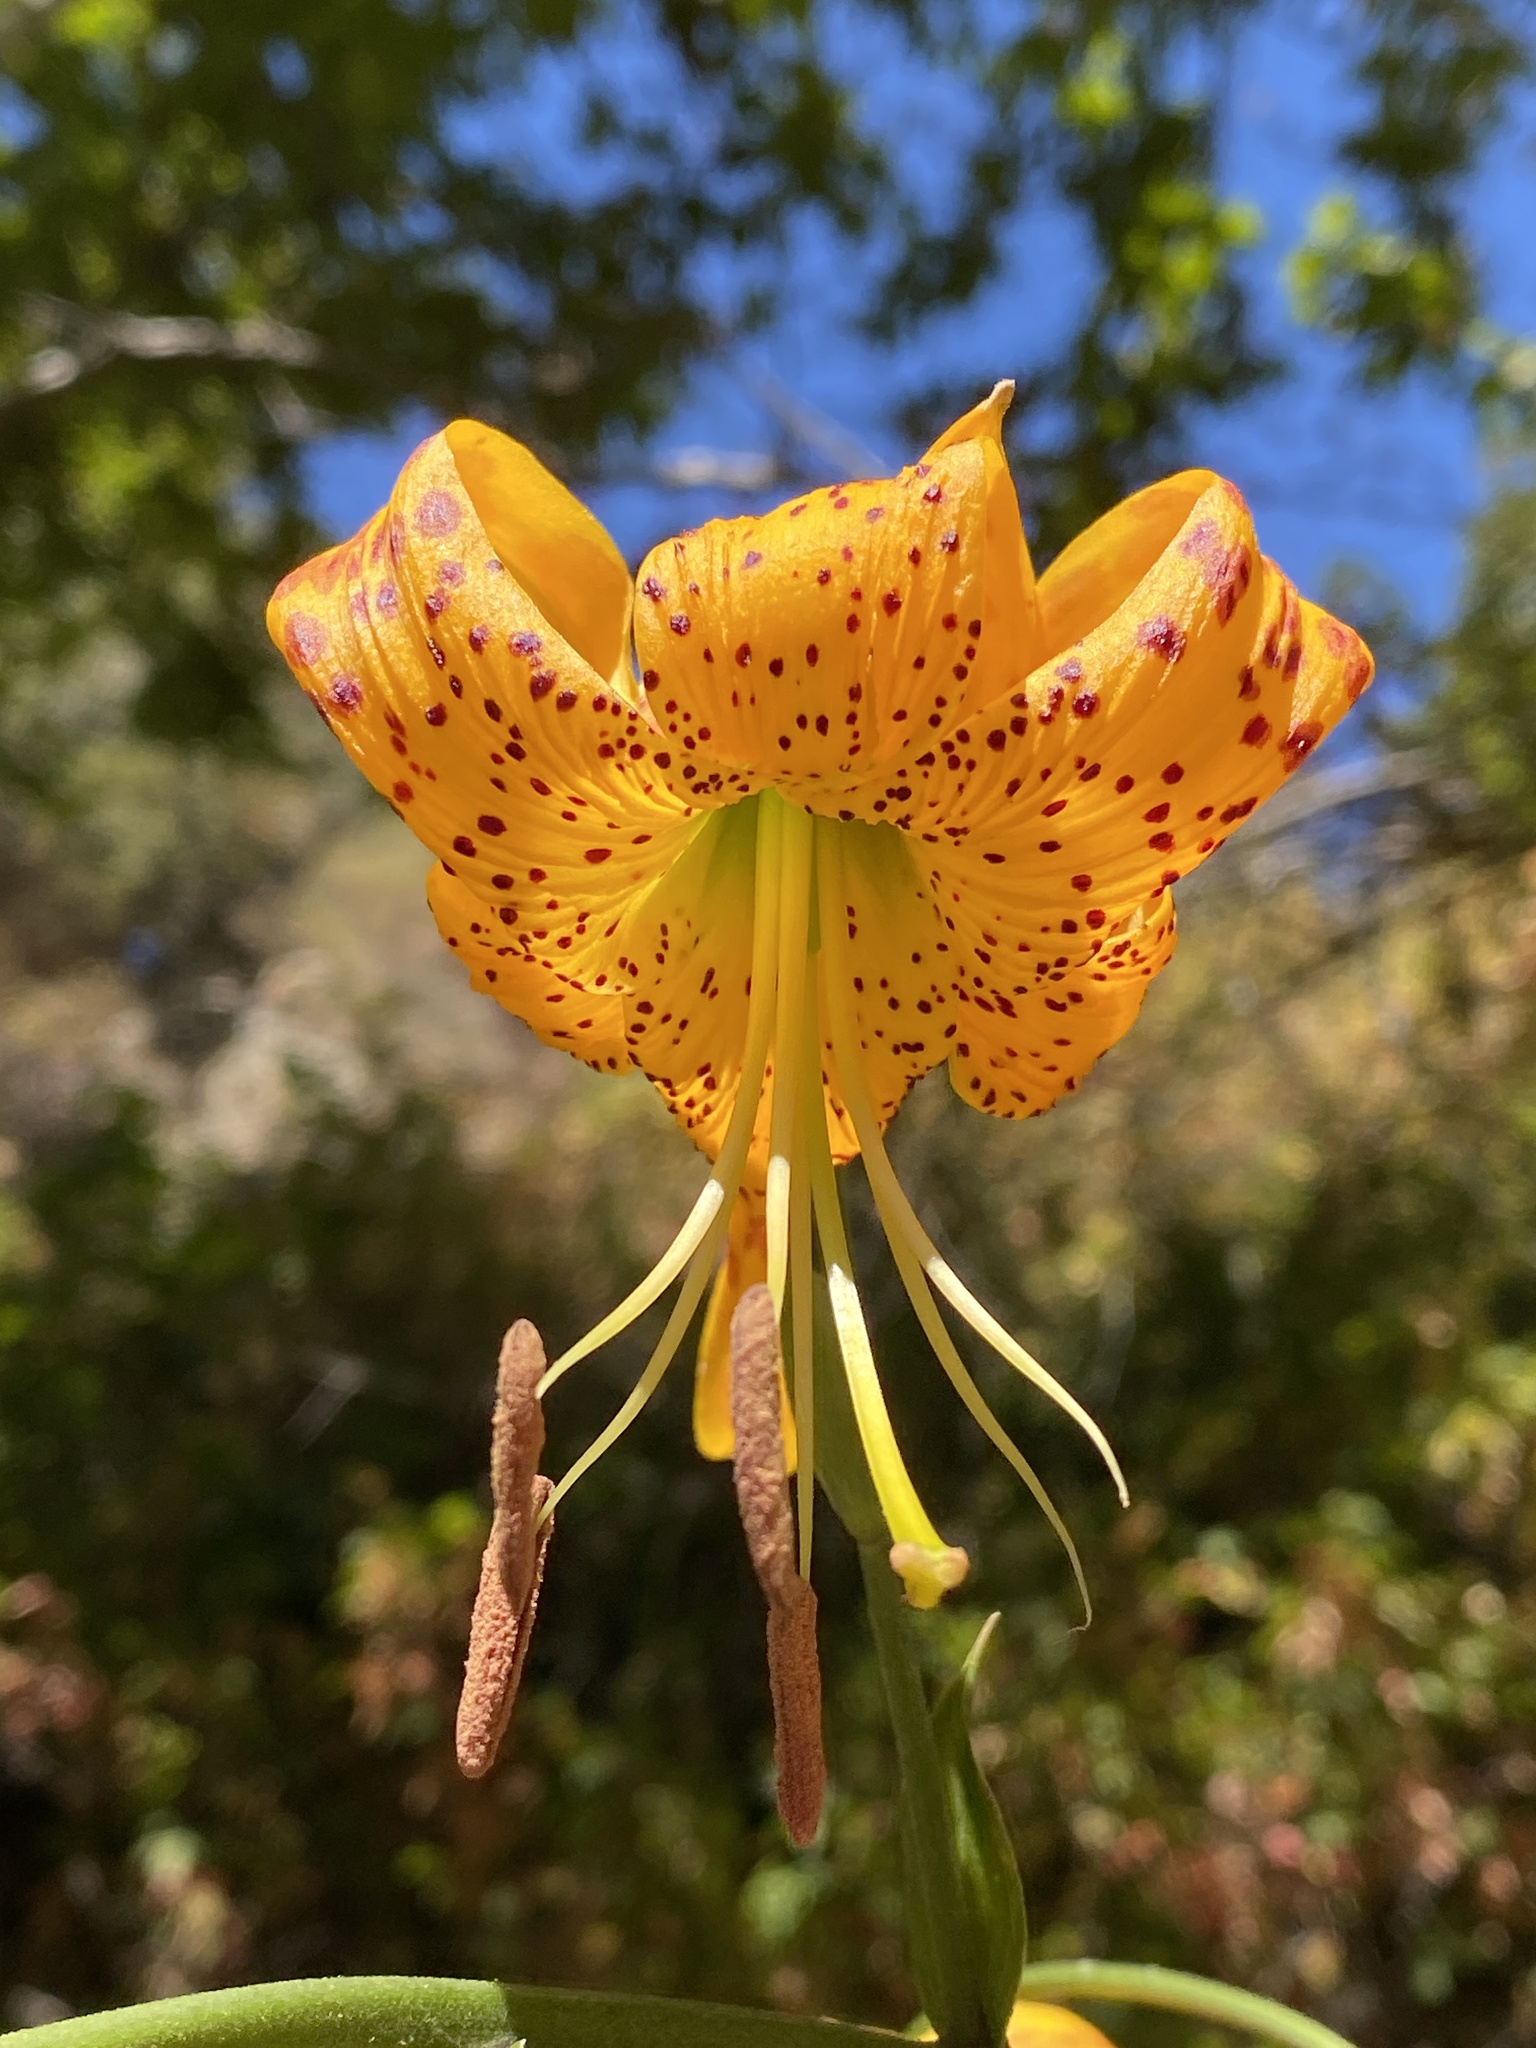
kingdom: Plantae
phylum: Tracheophyta
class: Liliopsida
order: Liliales
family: Liliaceae
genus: Lilium
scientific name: Lilium humboldtii
